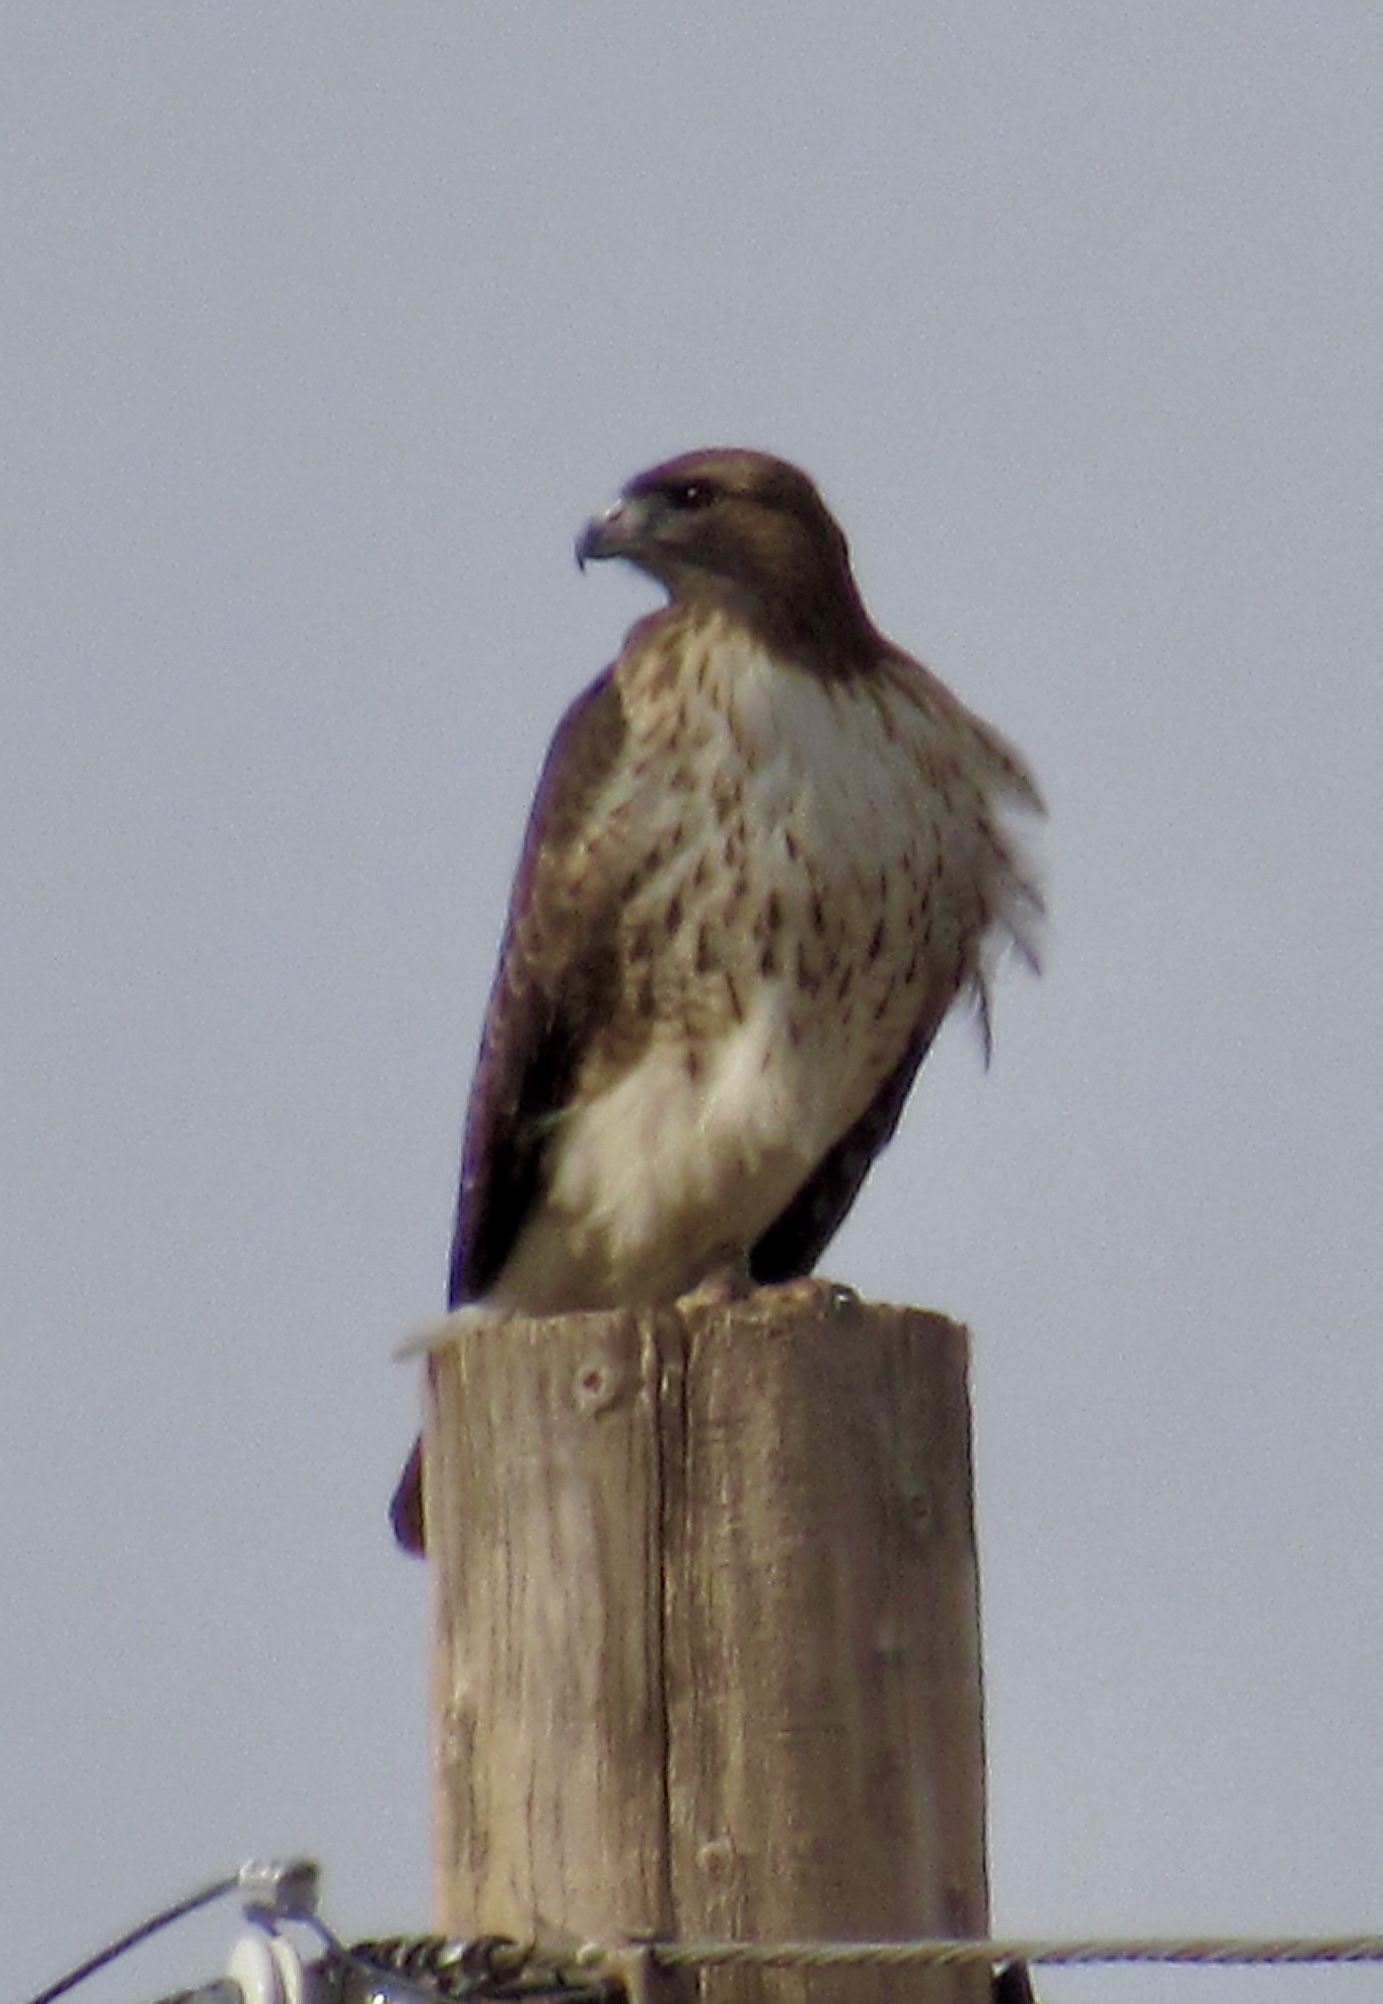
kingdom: Animalia
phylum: Chordata
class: Aves
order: Accipitriformes
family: Accipitridae
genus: Buteo
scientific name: Buteo jamaicensis
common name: Red-tailed hawk
